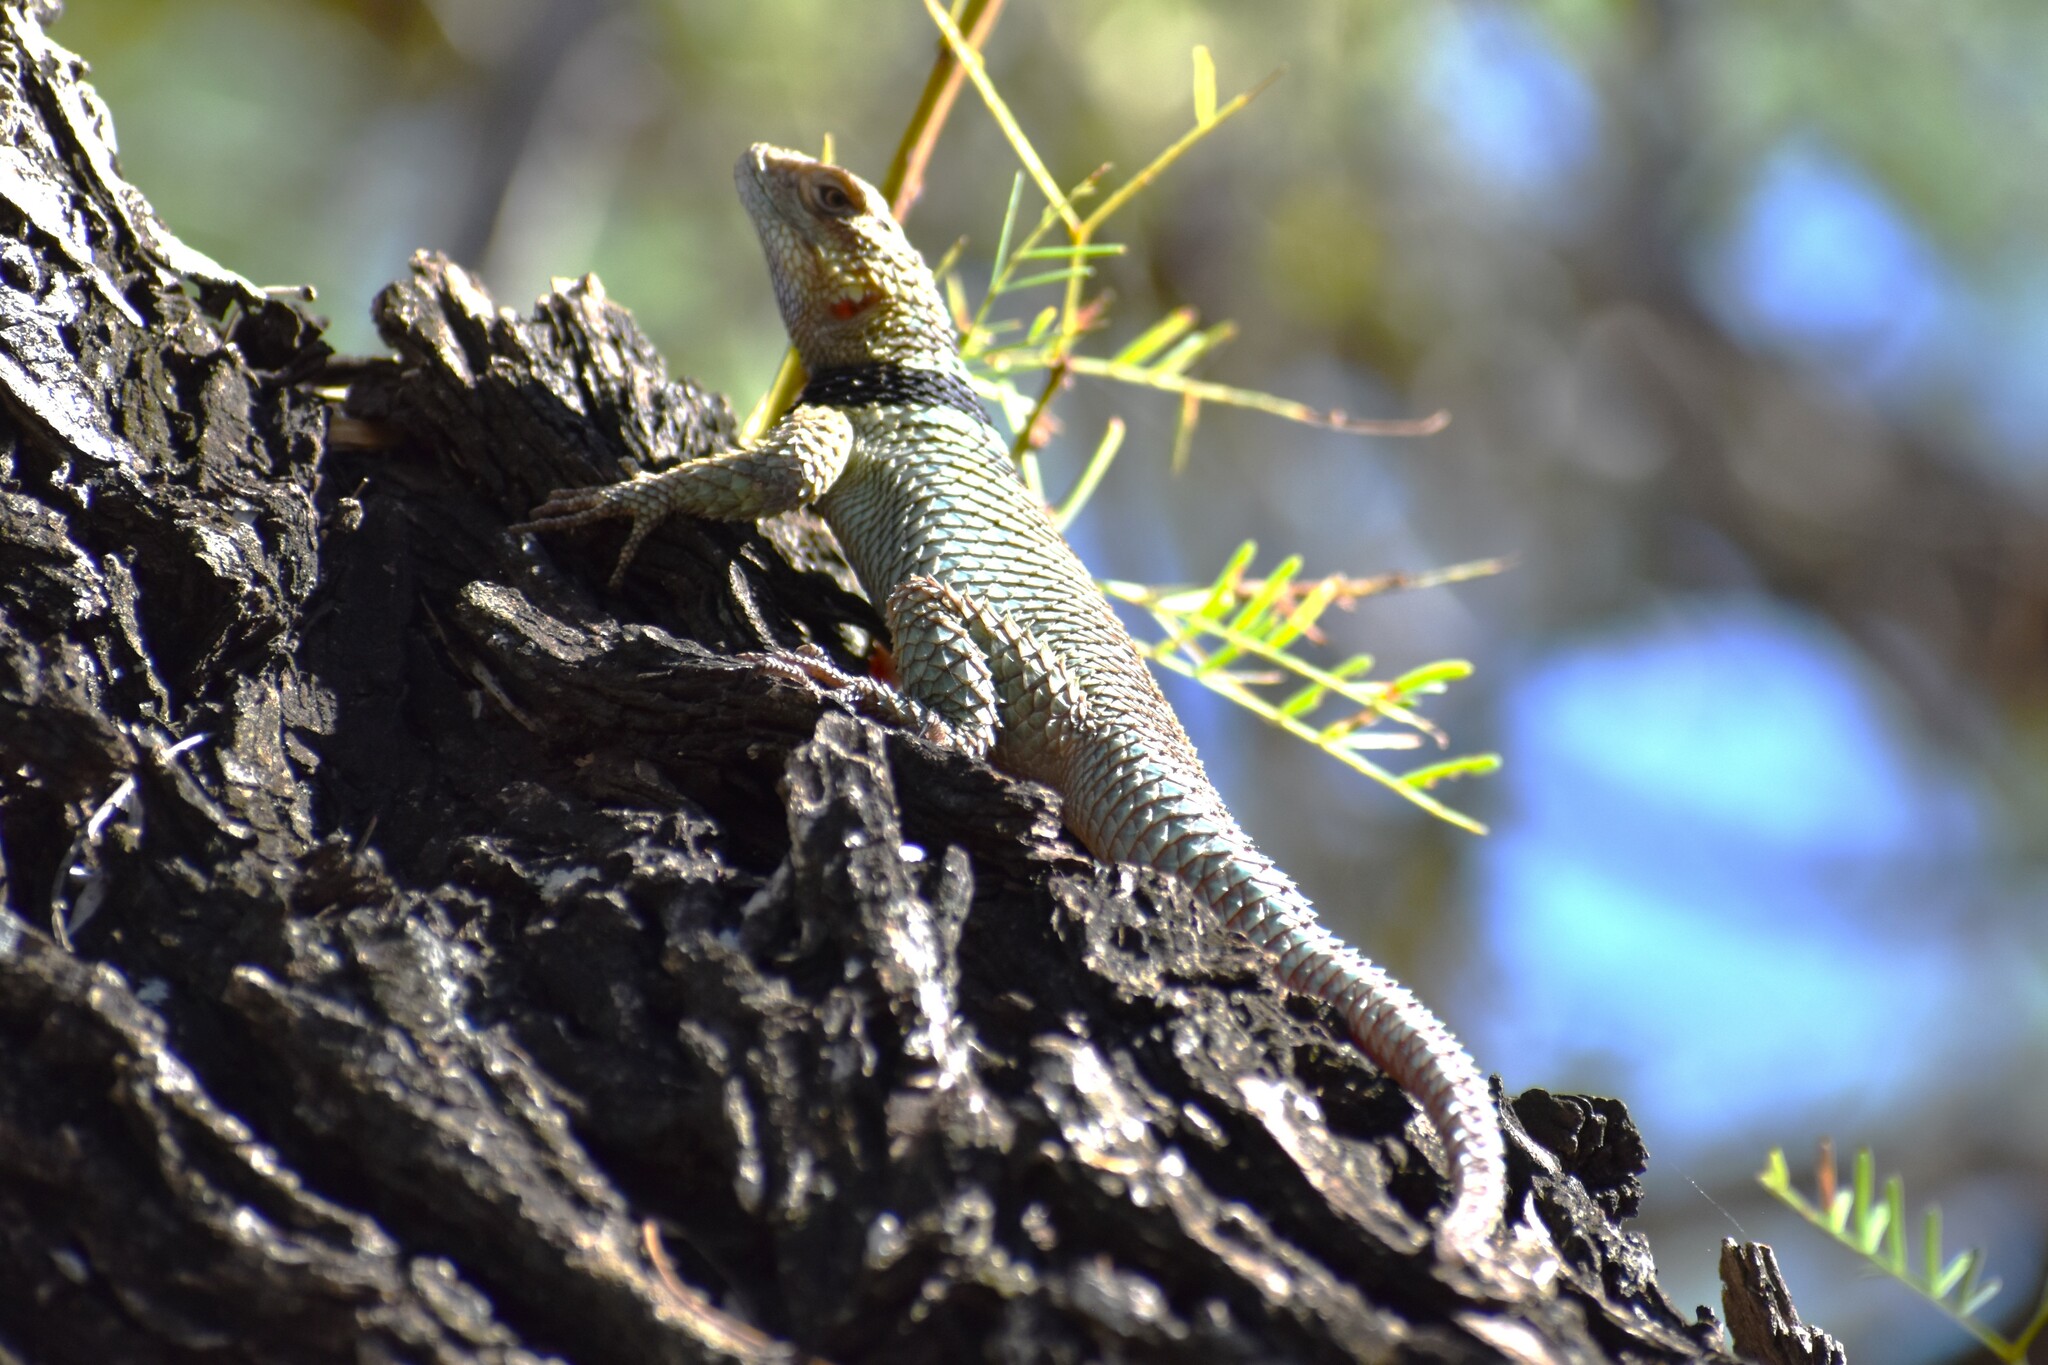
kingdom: Animalia
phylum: Chordata
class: Squamata
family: Phrynosomatidae
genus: Sceloporus
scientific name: Sceloporus cyanogenys
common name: Blue spiny lizard
